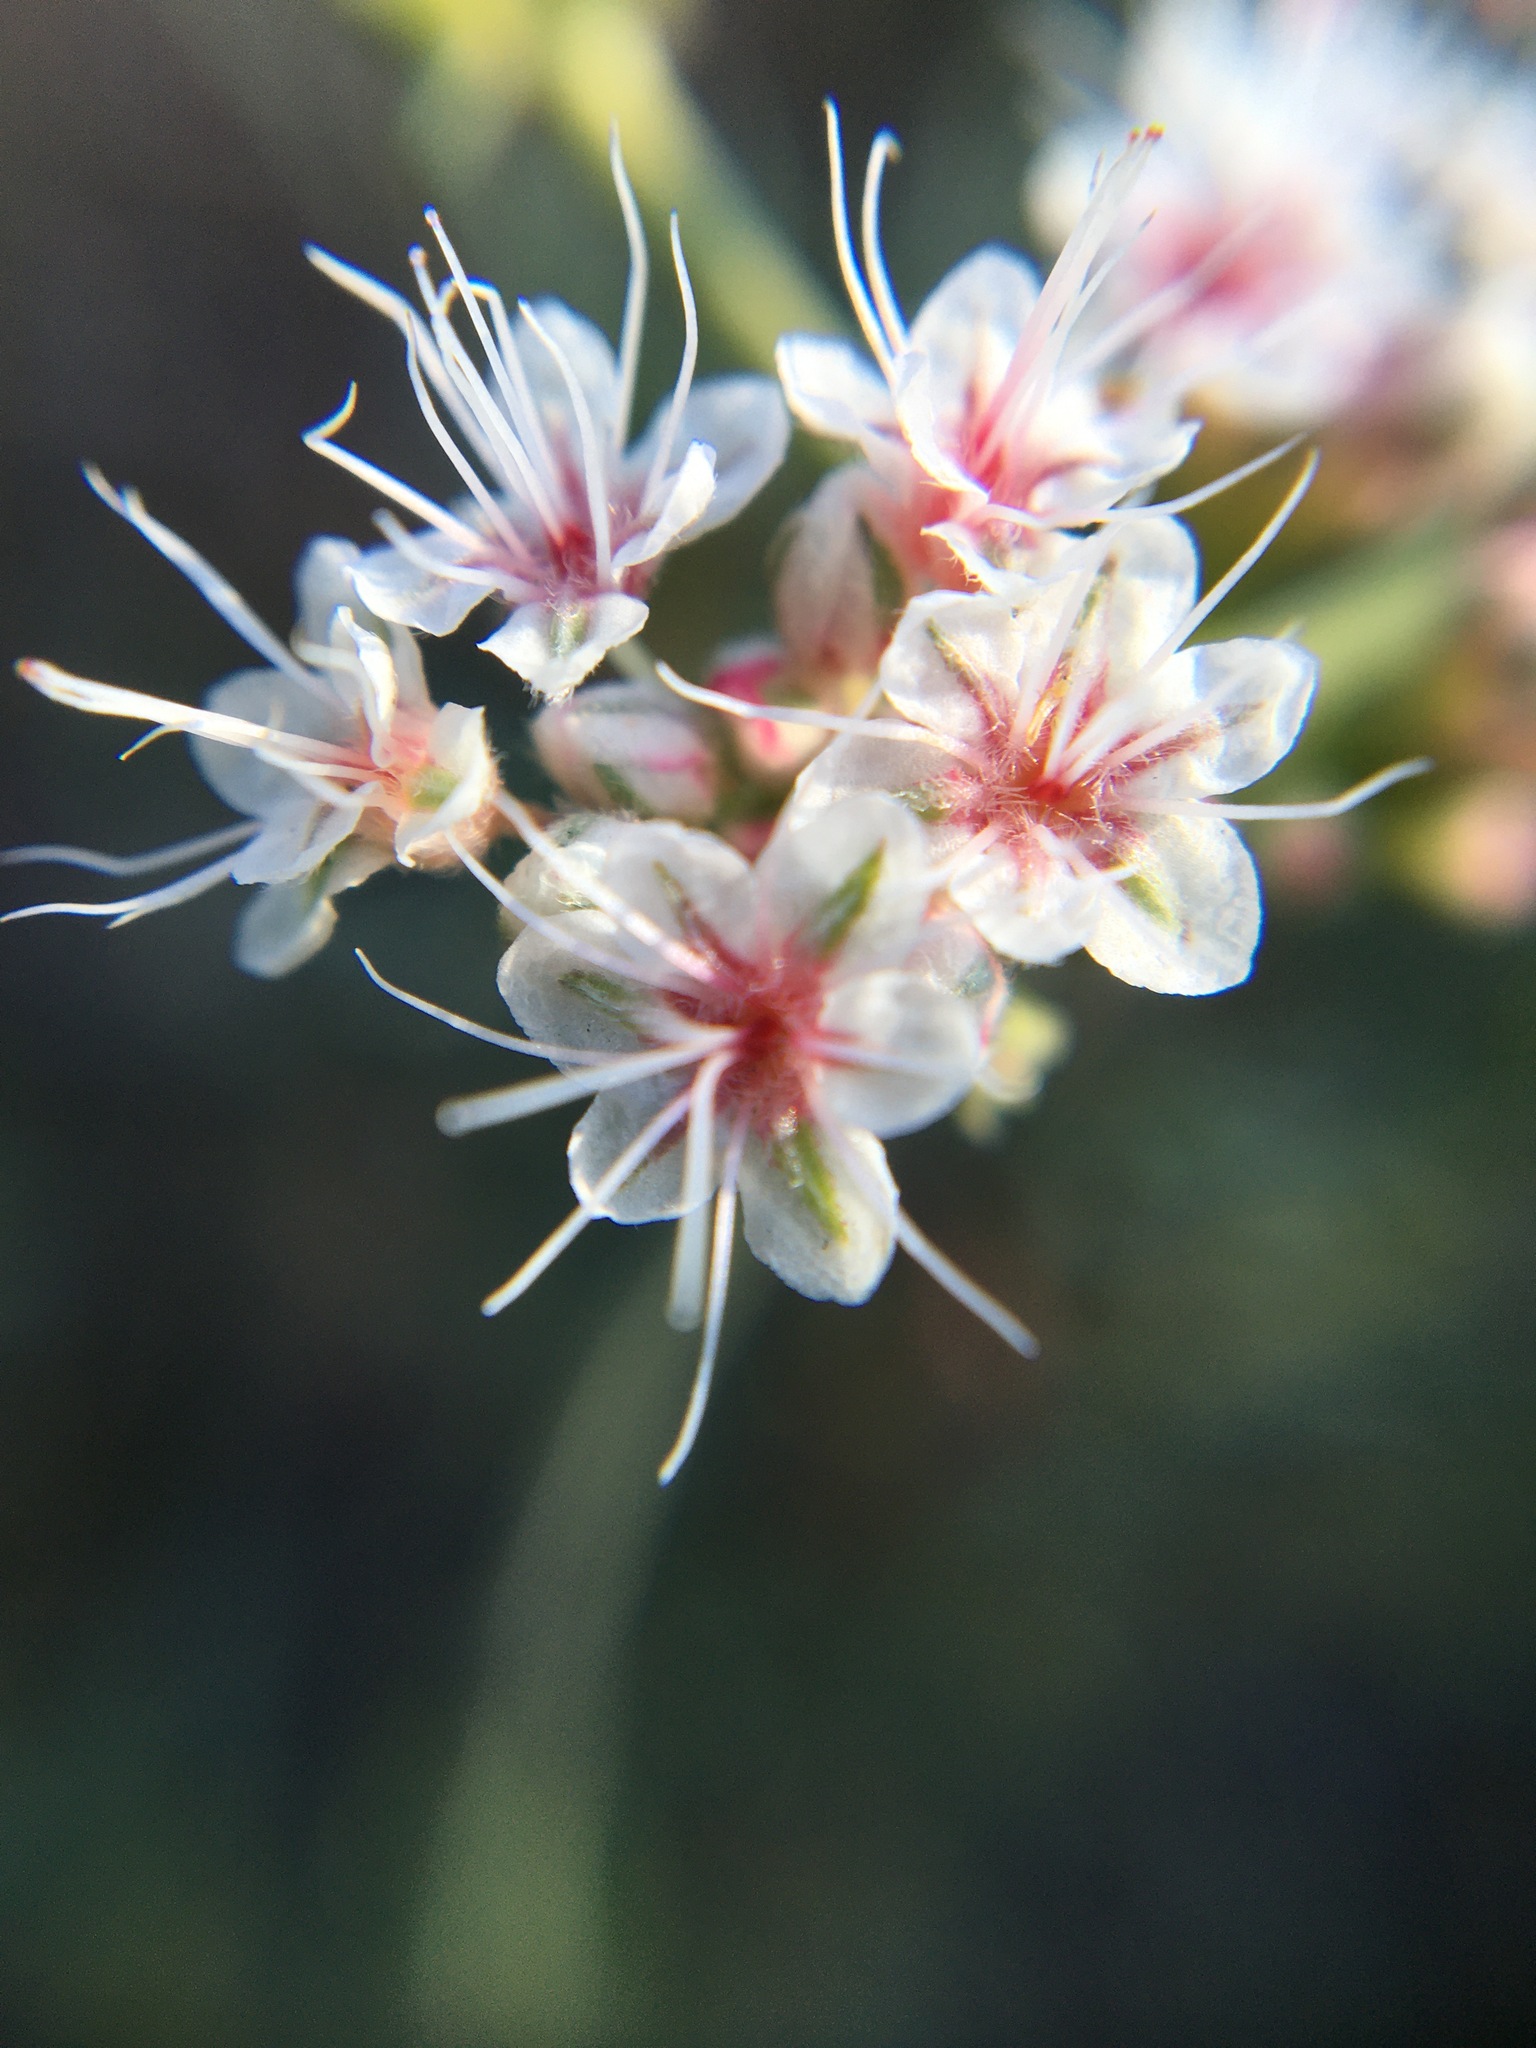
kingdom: Plantae
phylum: Tracheophyta
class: Magnoliopsida
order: Caryophyllales
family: Polygonaceae
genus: Eriogonum
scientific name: Eriogonum fasciculatum
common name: California wild buckwheat
